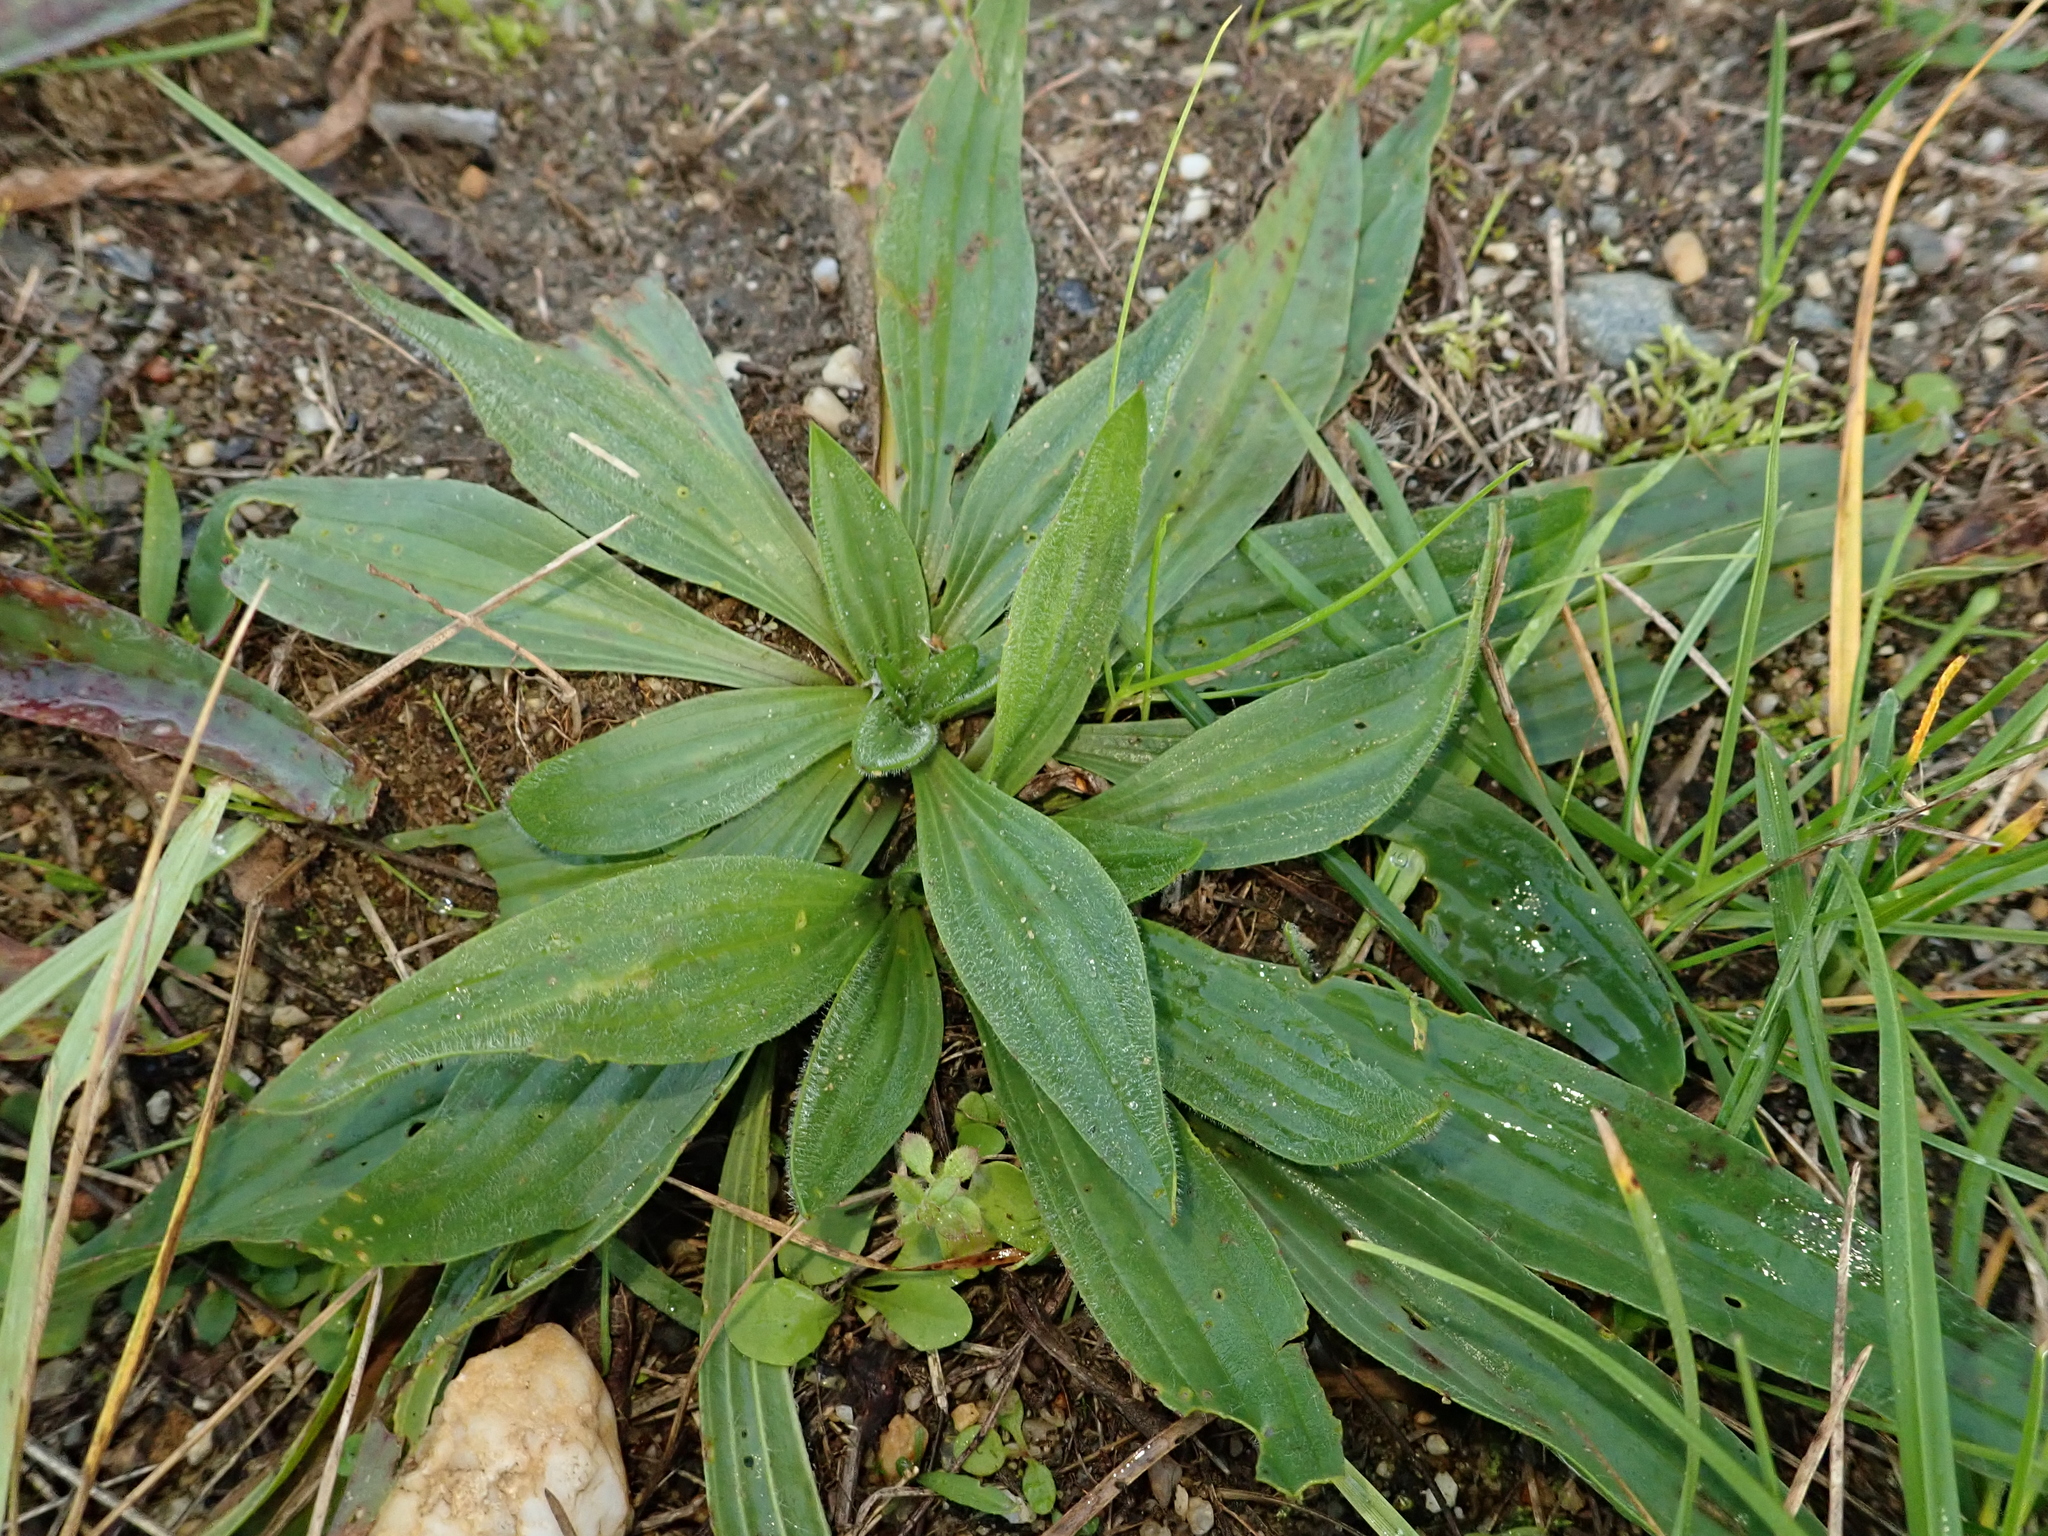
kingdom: Plantae
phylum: Tracheophyta
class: Magnoliopsida
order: Lamiales
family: Plantaginaceae
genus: Plantago
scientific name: Plantago lanceolata
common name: Ribwort plantain
